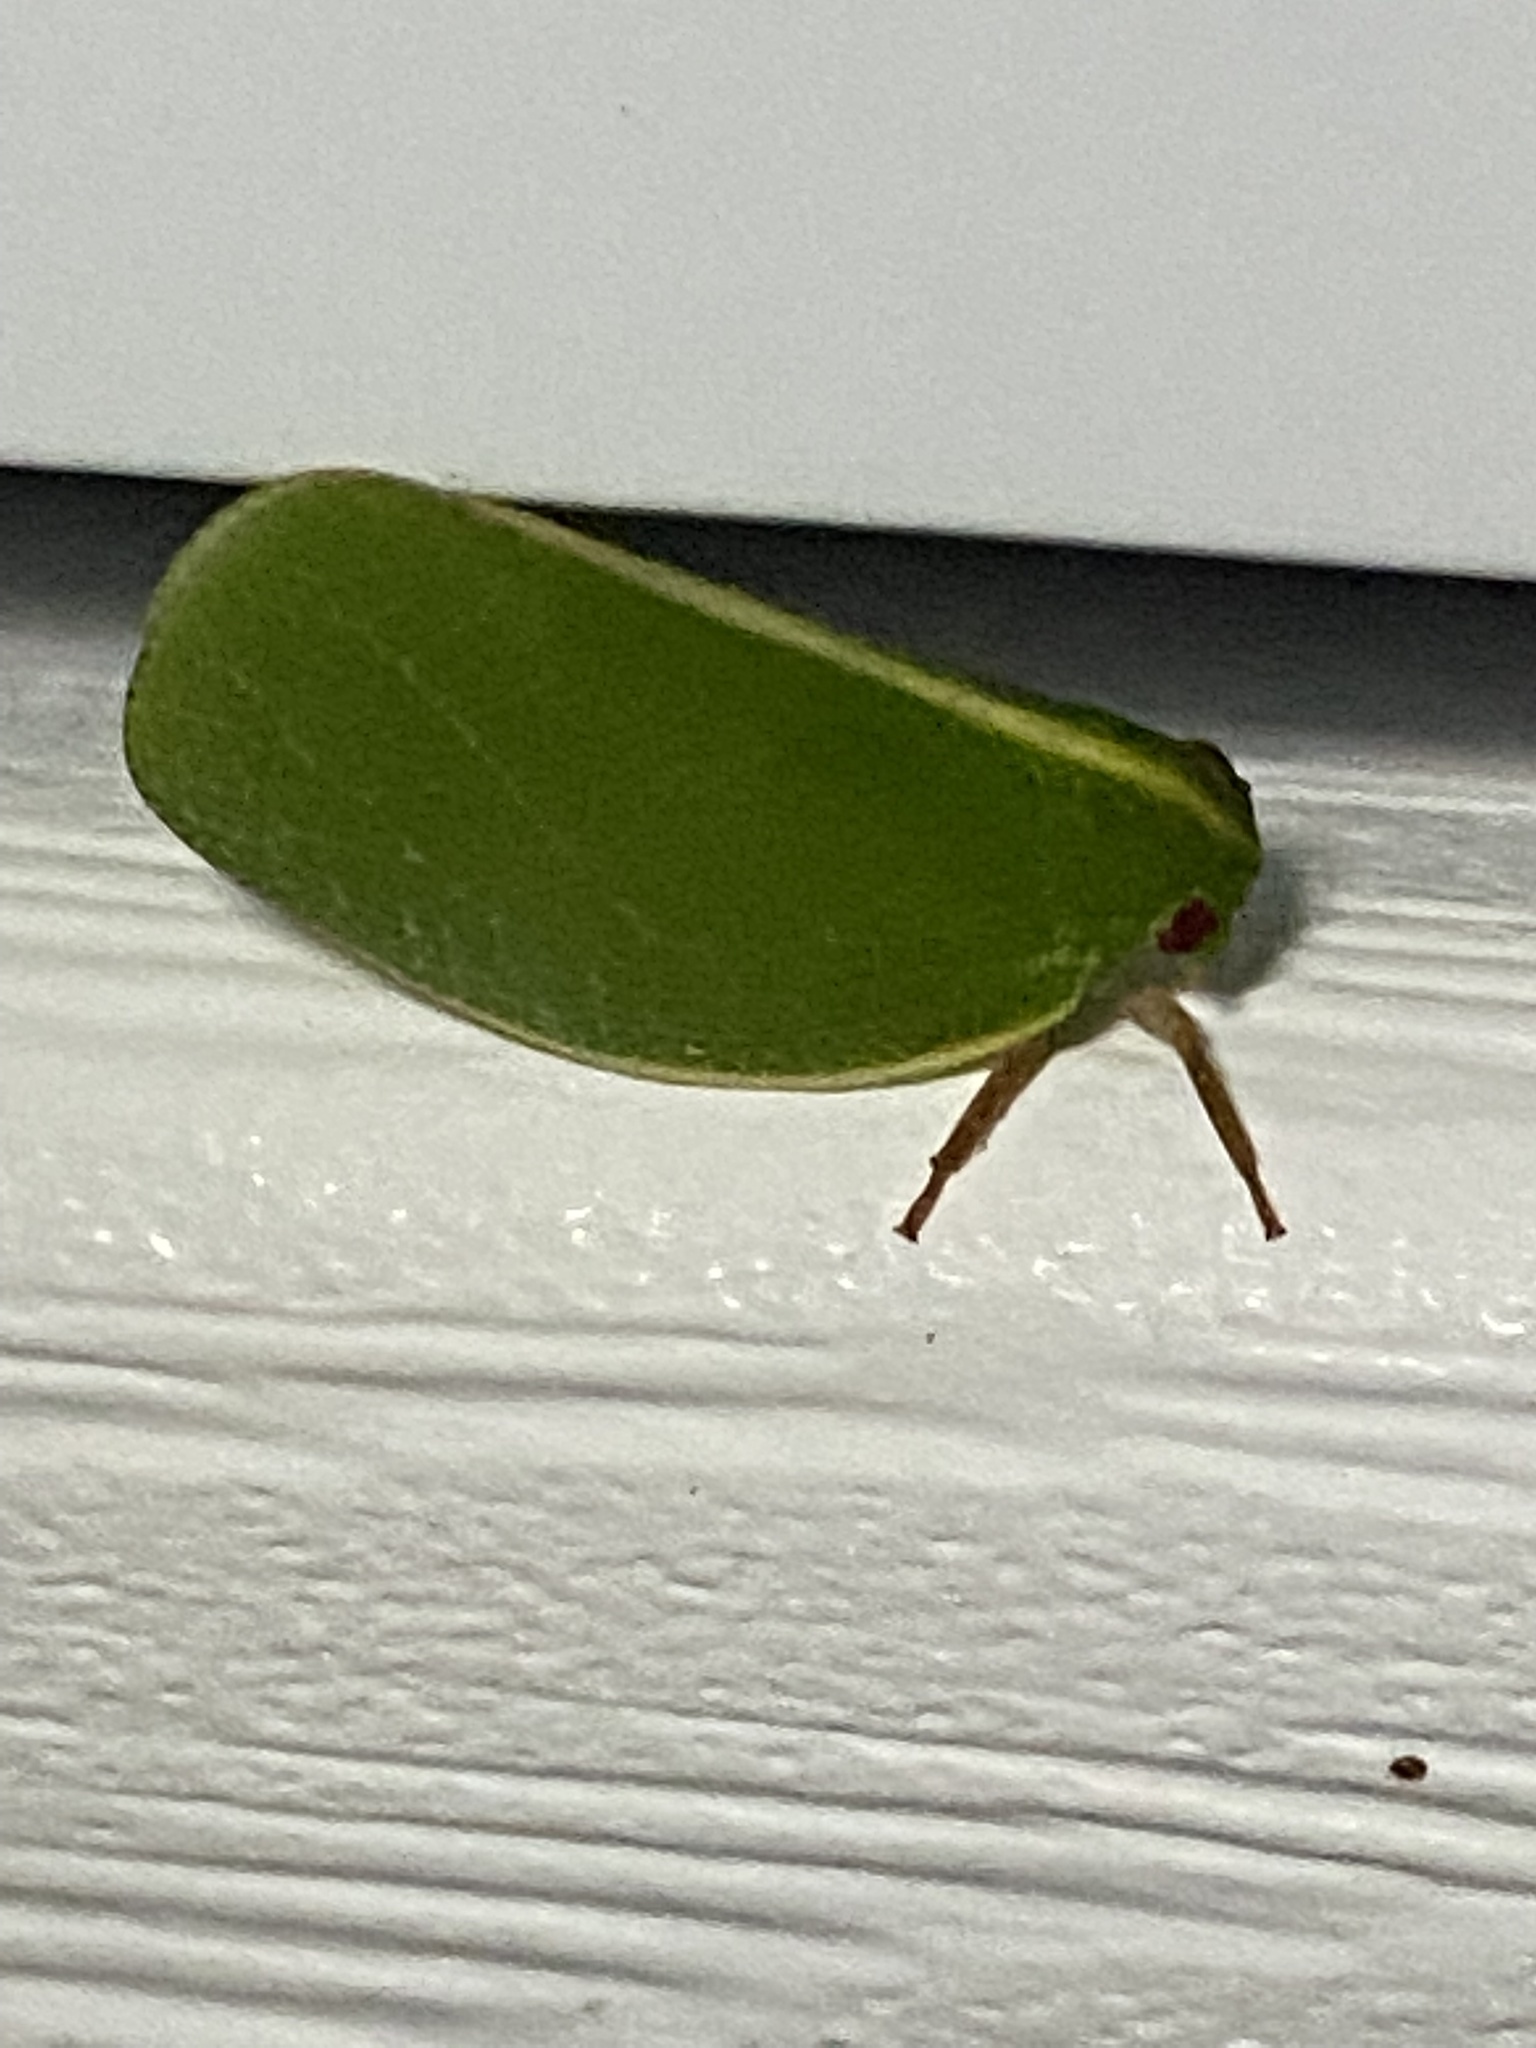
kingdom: Animalia
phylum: Arthropoda
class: Insecta
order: Hemiptera
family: Acanaloniidae
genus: Acanalonia
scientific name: Acanalonia servillei
